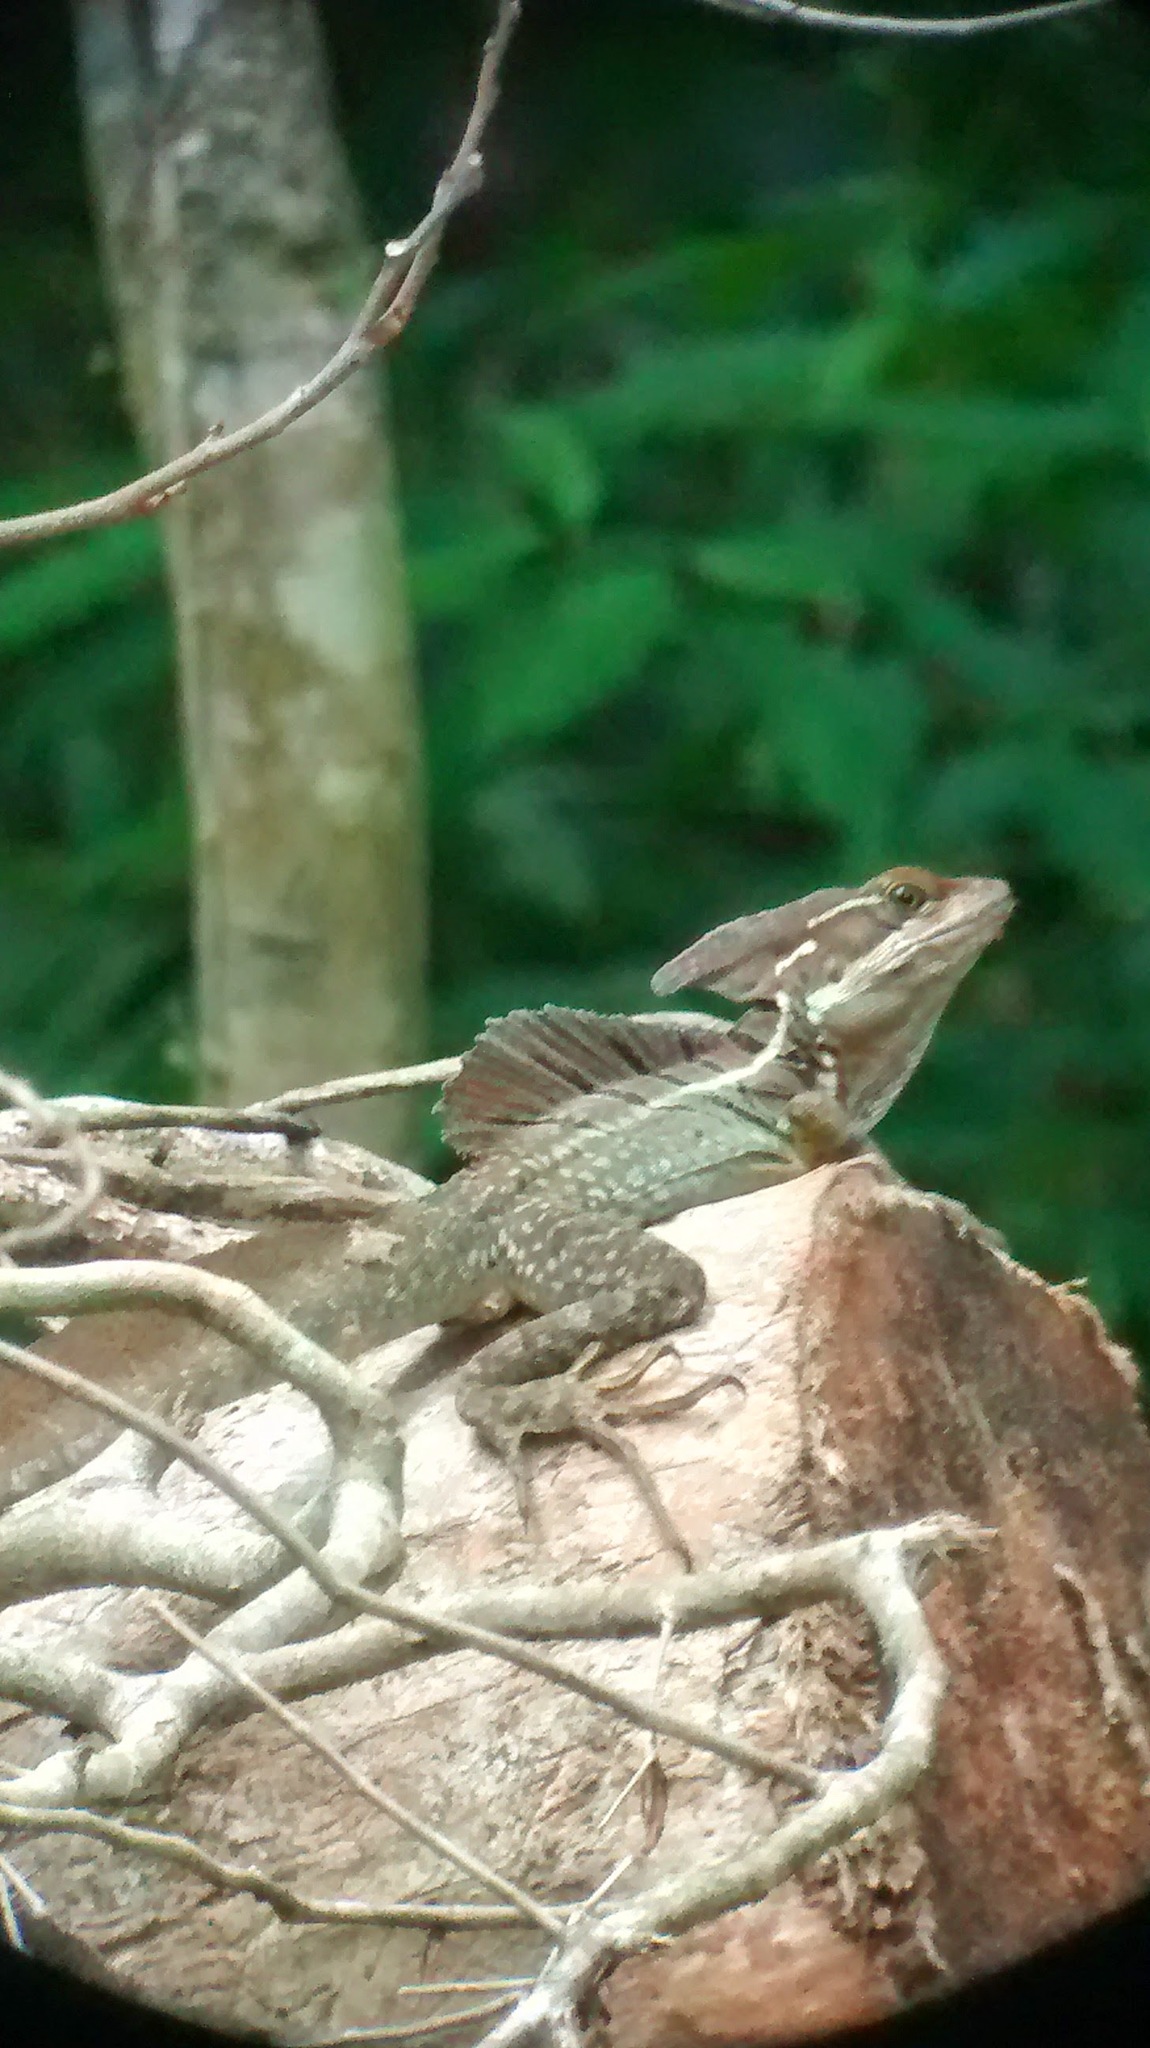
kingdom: Animalia
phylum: Chordata
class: Squamata
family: Corytophanidae
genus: Basiliscus
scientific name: Basiliscus basiliscus
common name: Common basilisk
